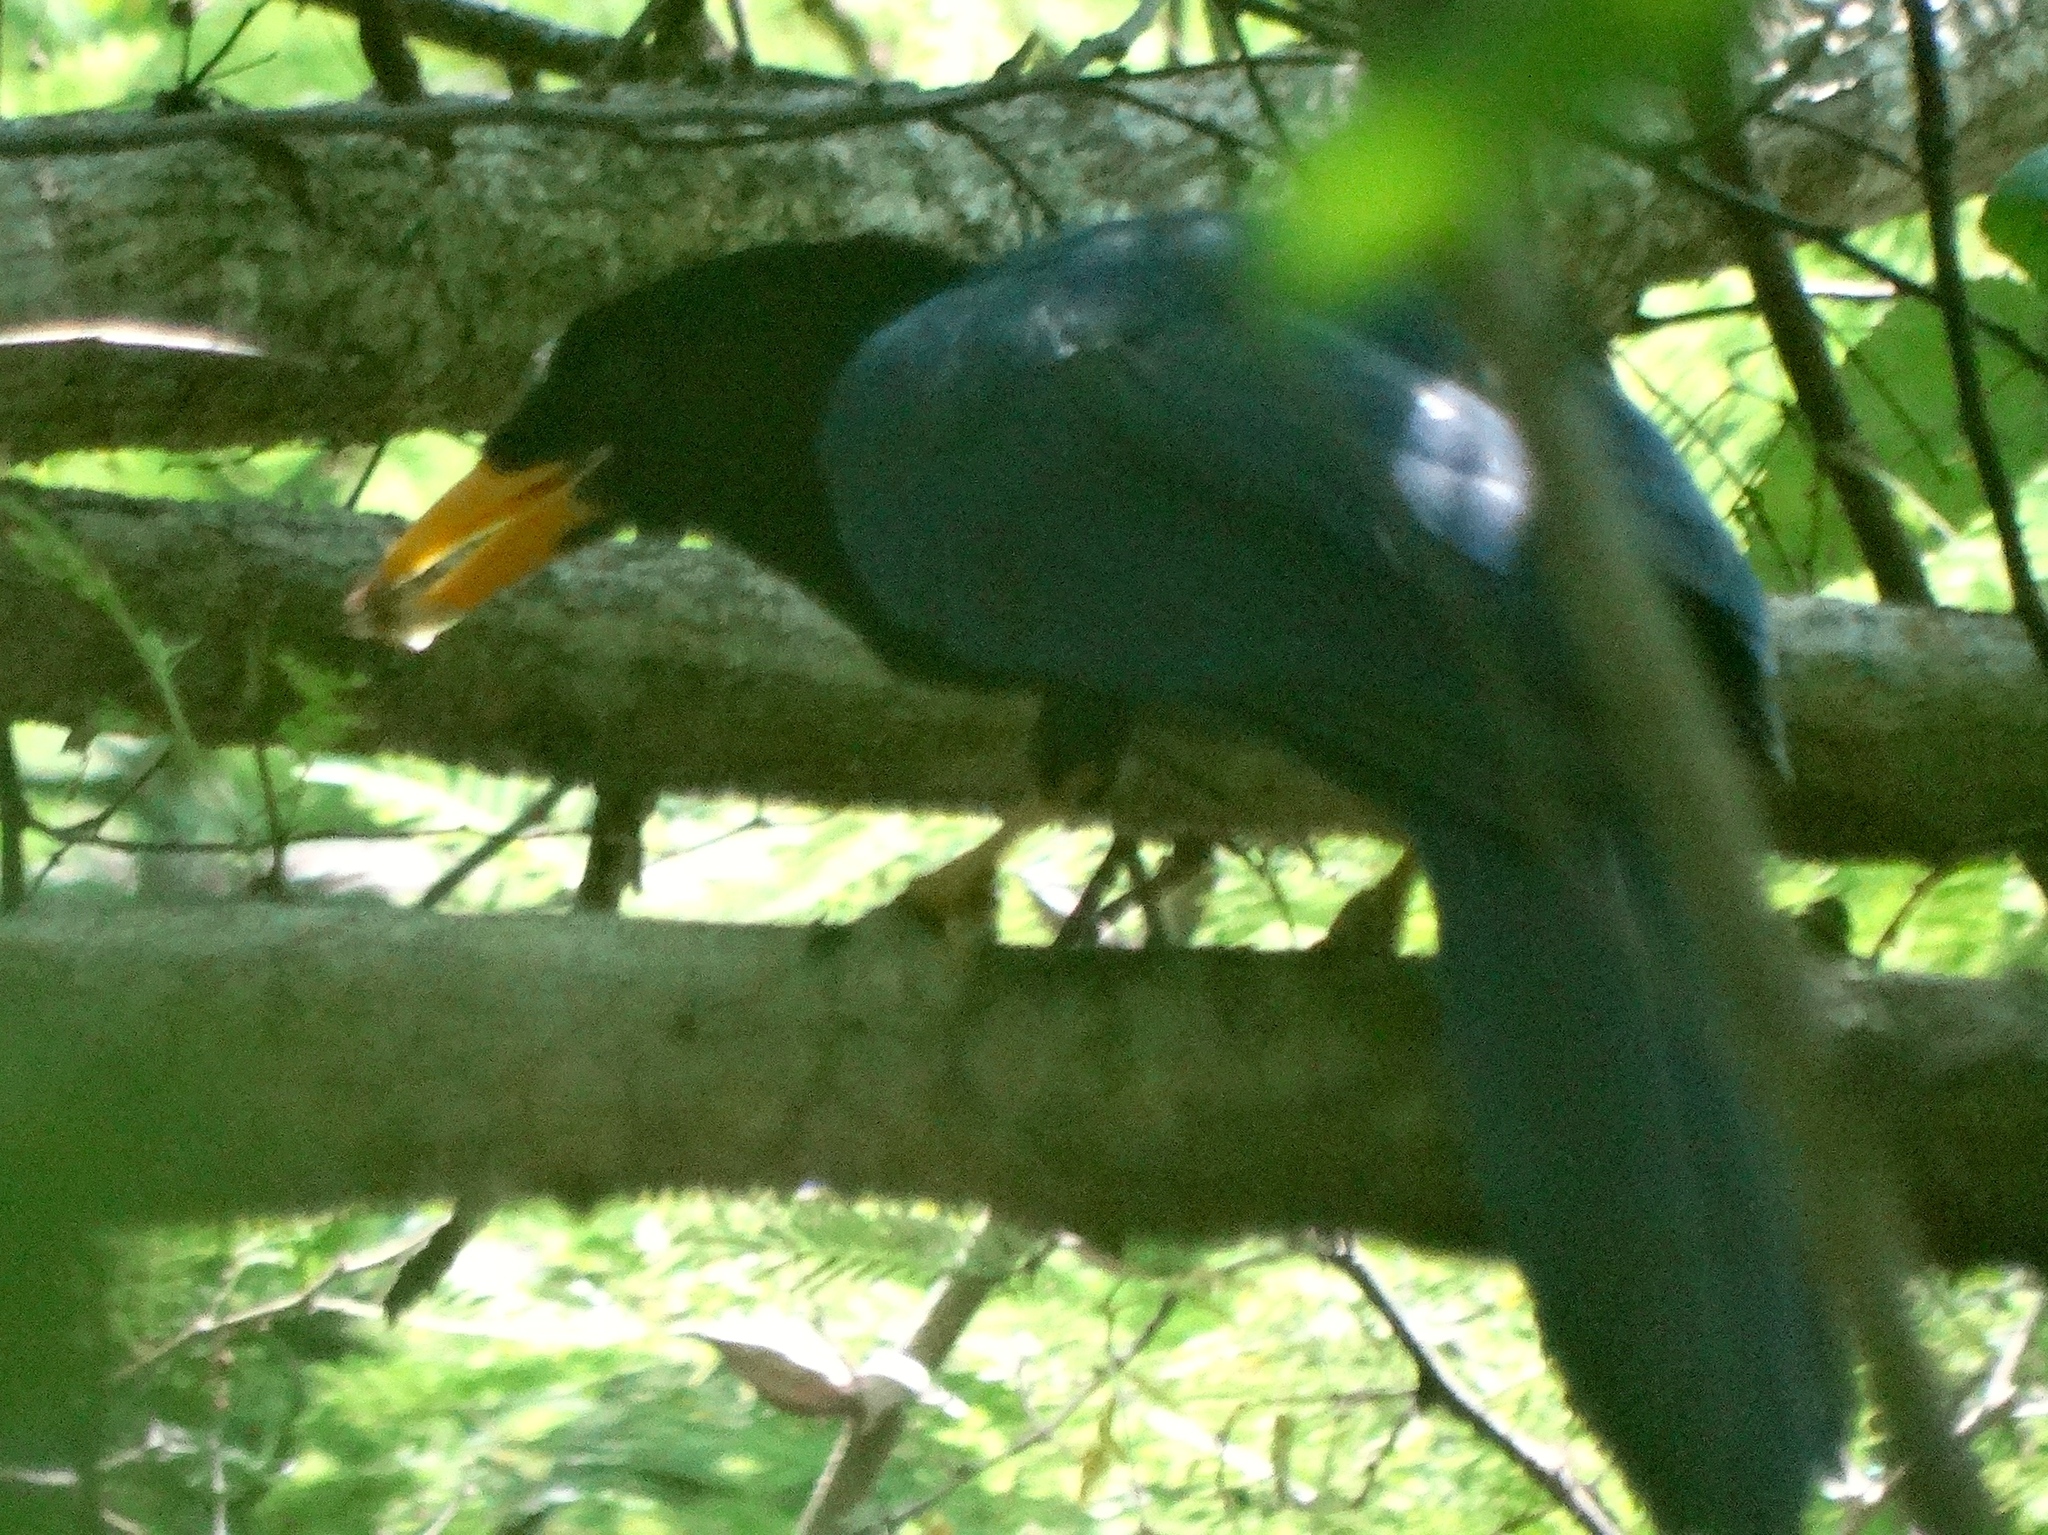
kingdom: Animalia
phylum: Chordata
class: Aves
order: Passeriformes
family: Corvidae
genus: Cyanocorax
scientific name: Cyanocorax beecheii
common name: Purplish-backed jay
